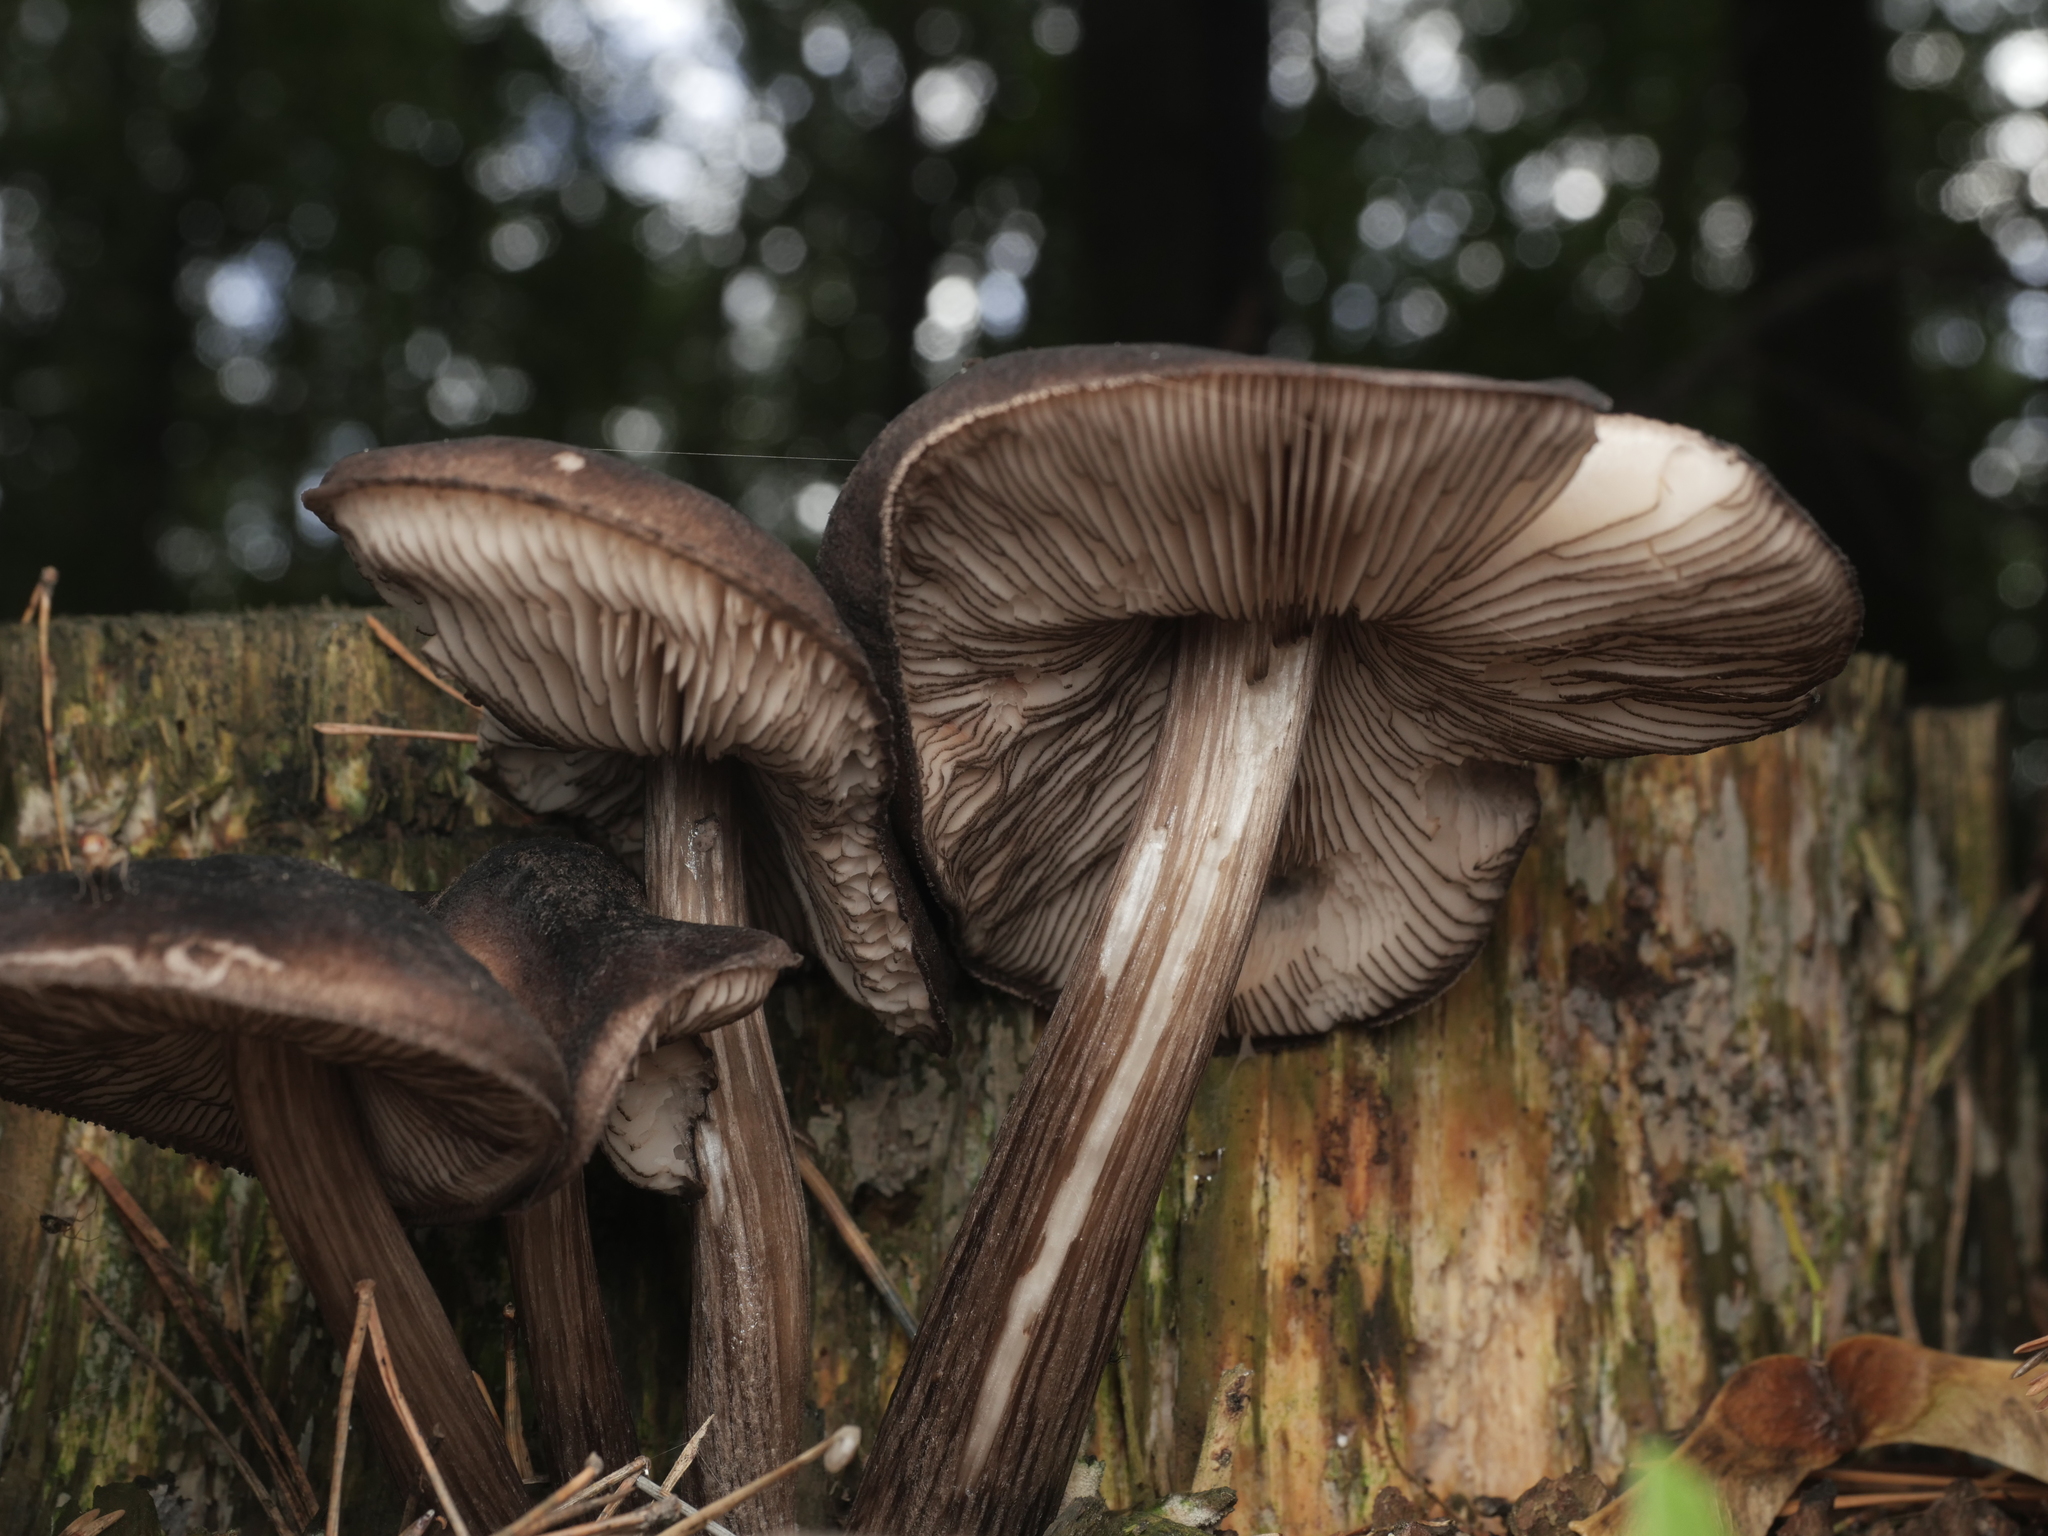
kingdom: Fungi
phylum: Basidiomycota
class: Agaricomycetes
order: Agaricales
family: Pluteaceae
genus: Pluteus
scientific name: Pluteus atromarginatus
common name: Blackedged shield
